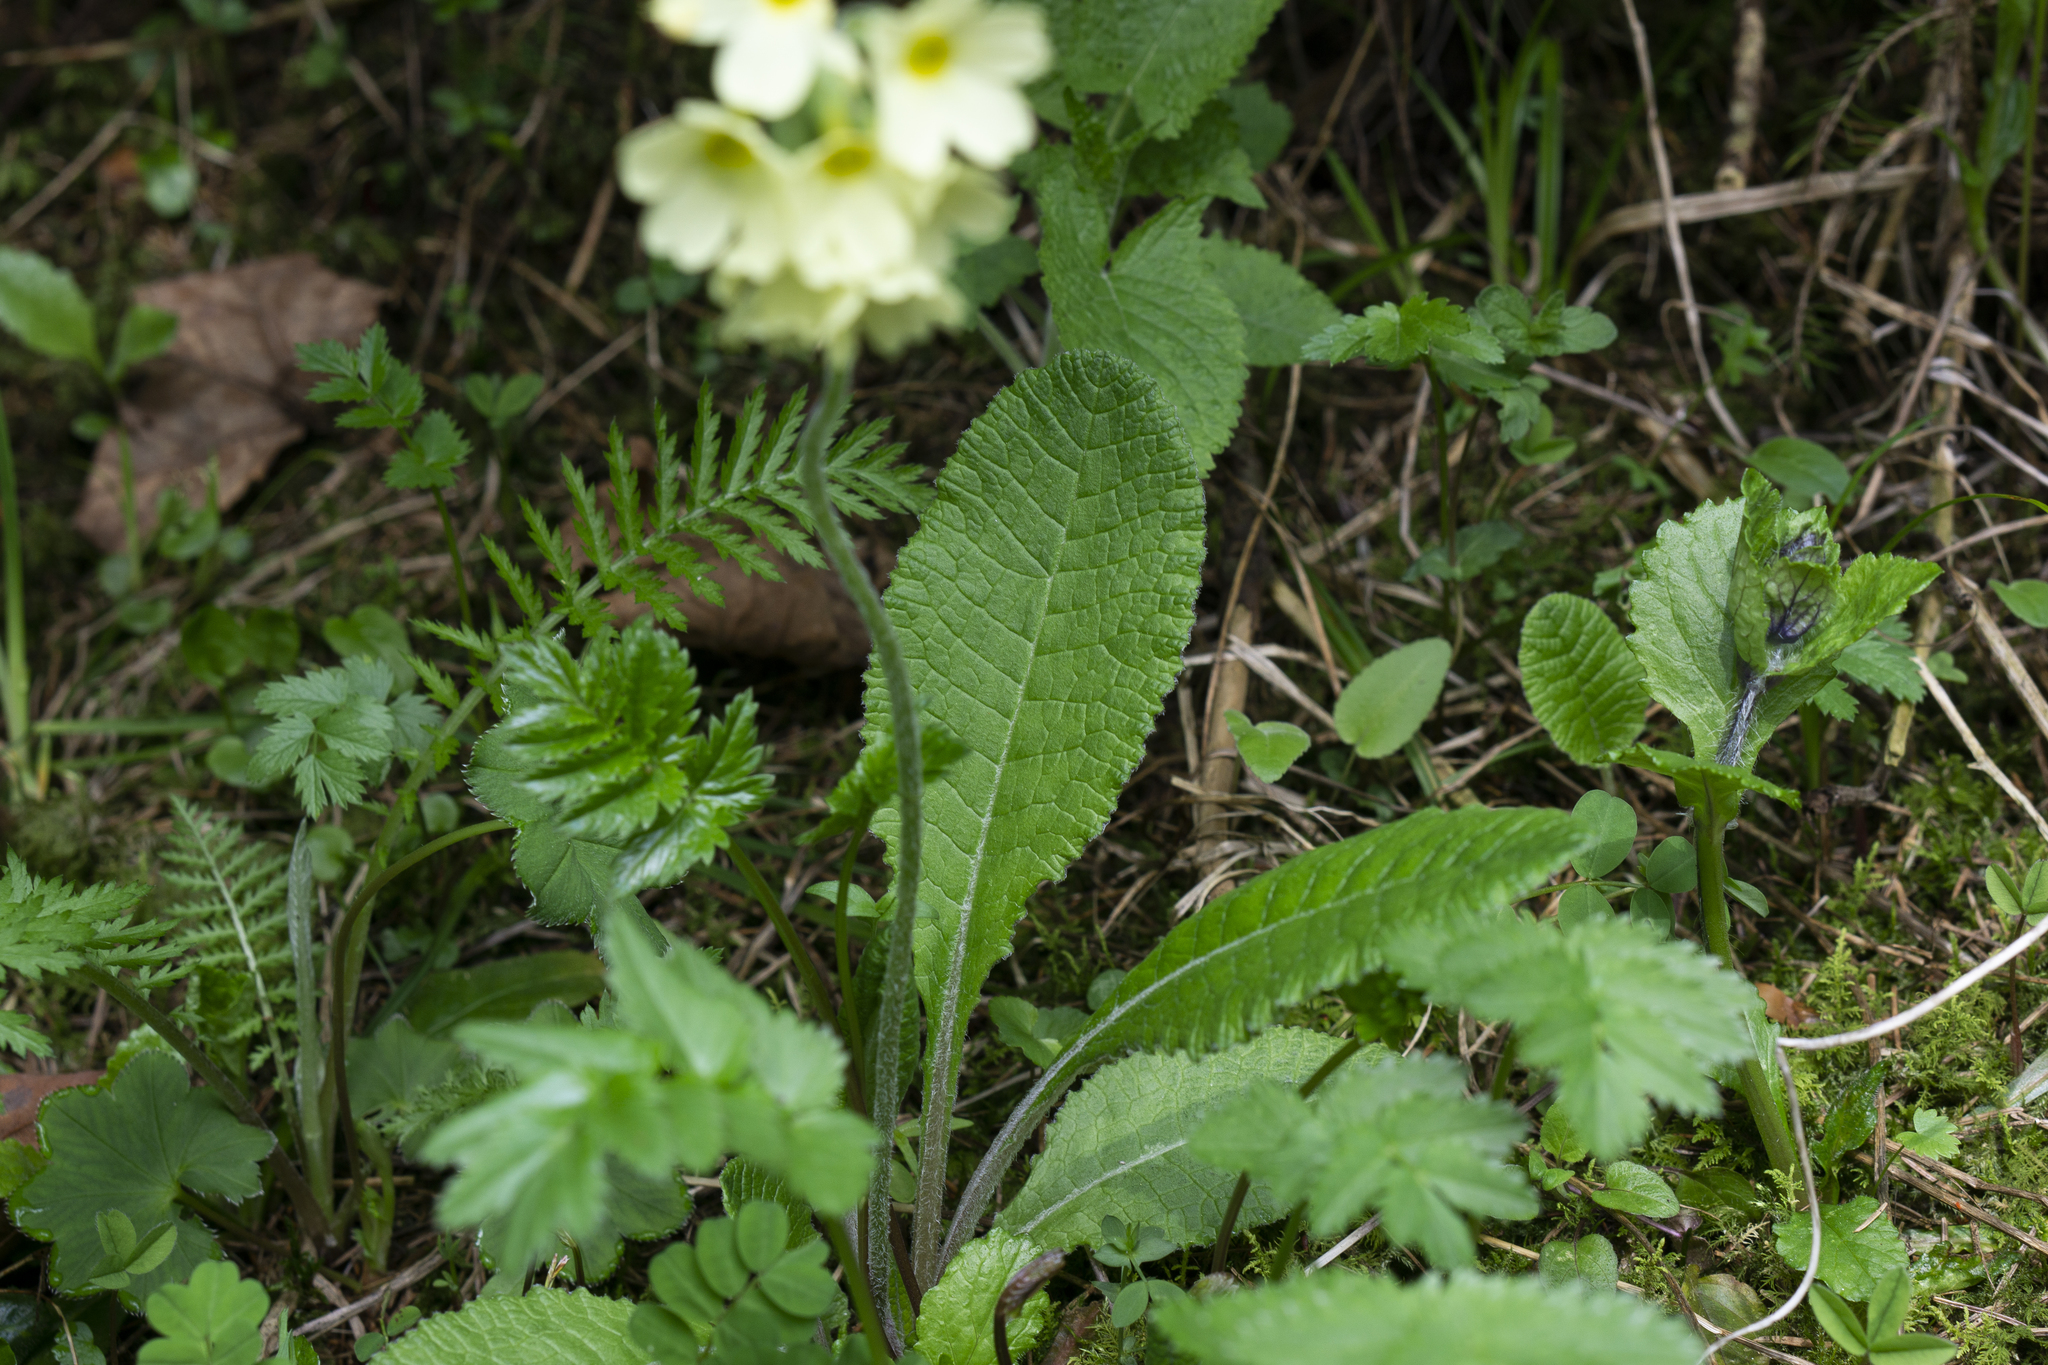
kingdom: Plantae
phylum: Tracheophyta
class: Magnoliopsida
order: Ericales
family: Primulaceae
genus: Primula
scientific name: Primula elatior
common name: Oxlip
